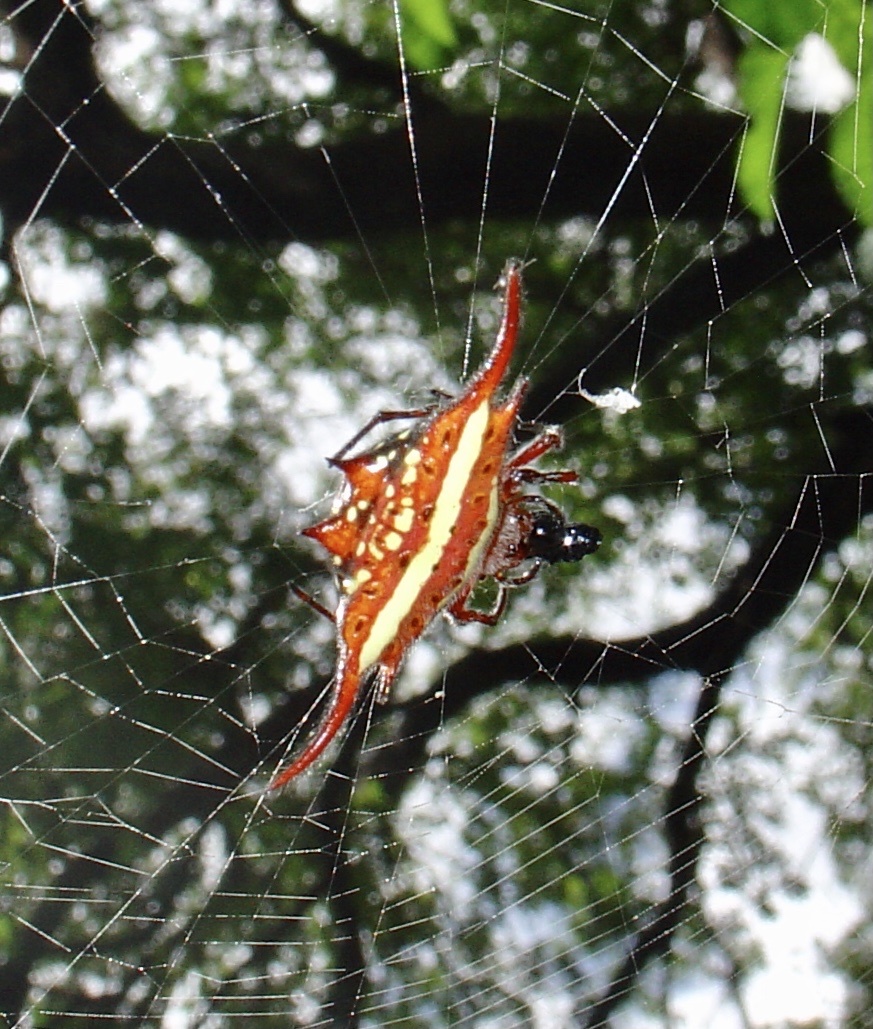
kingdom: Animalia
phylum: Arthropoda
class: Arachnida
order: Araneae
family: Araneidae
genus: Gasteracantha
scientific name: Gasteracantha milvoides
